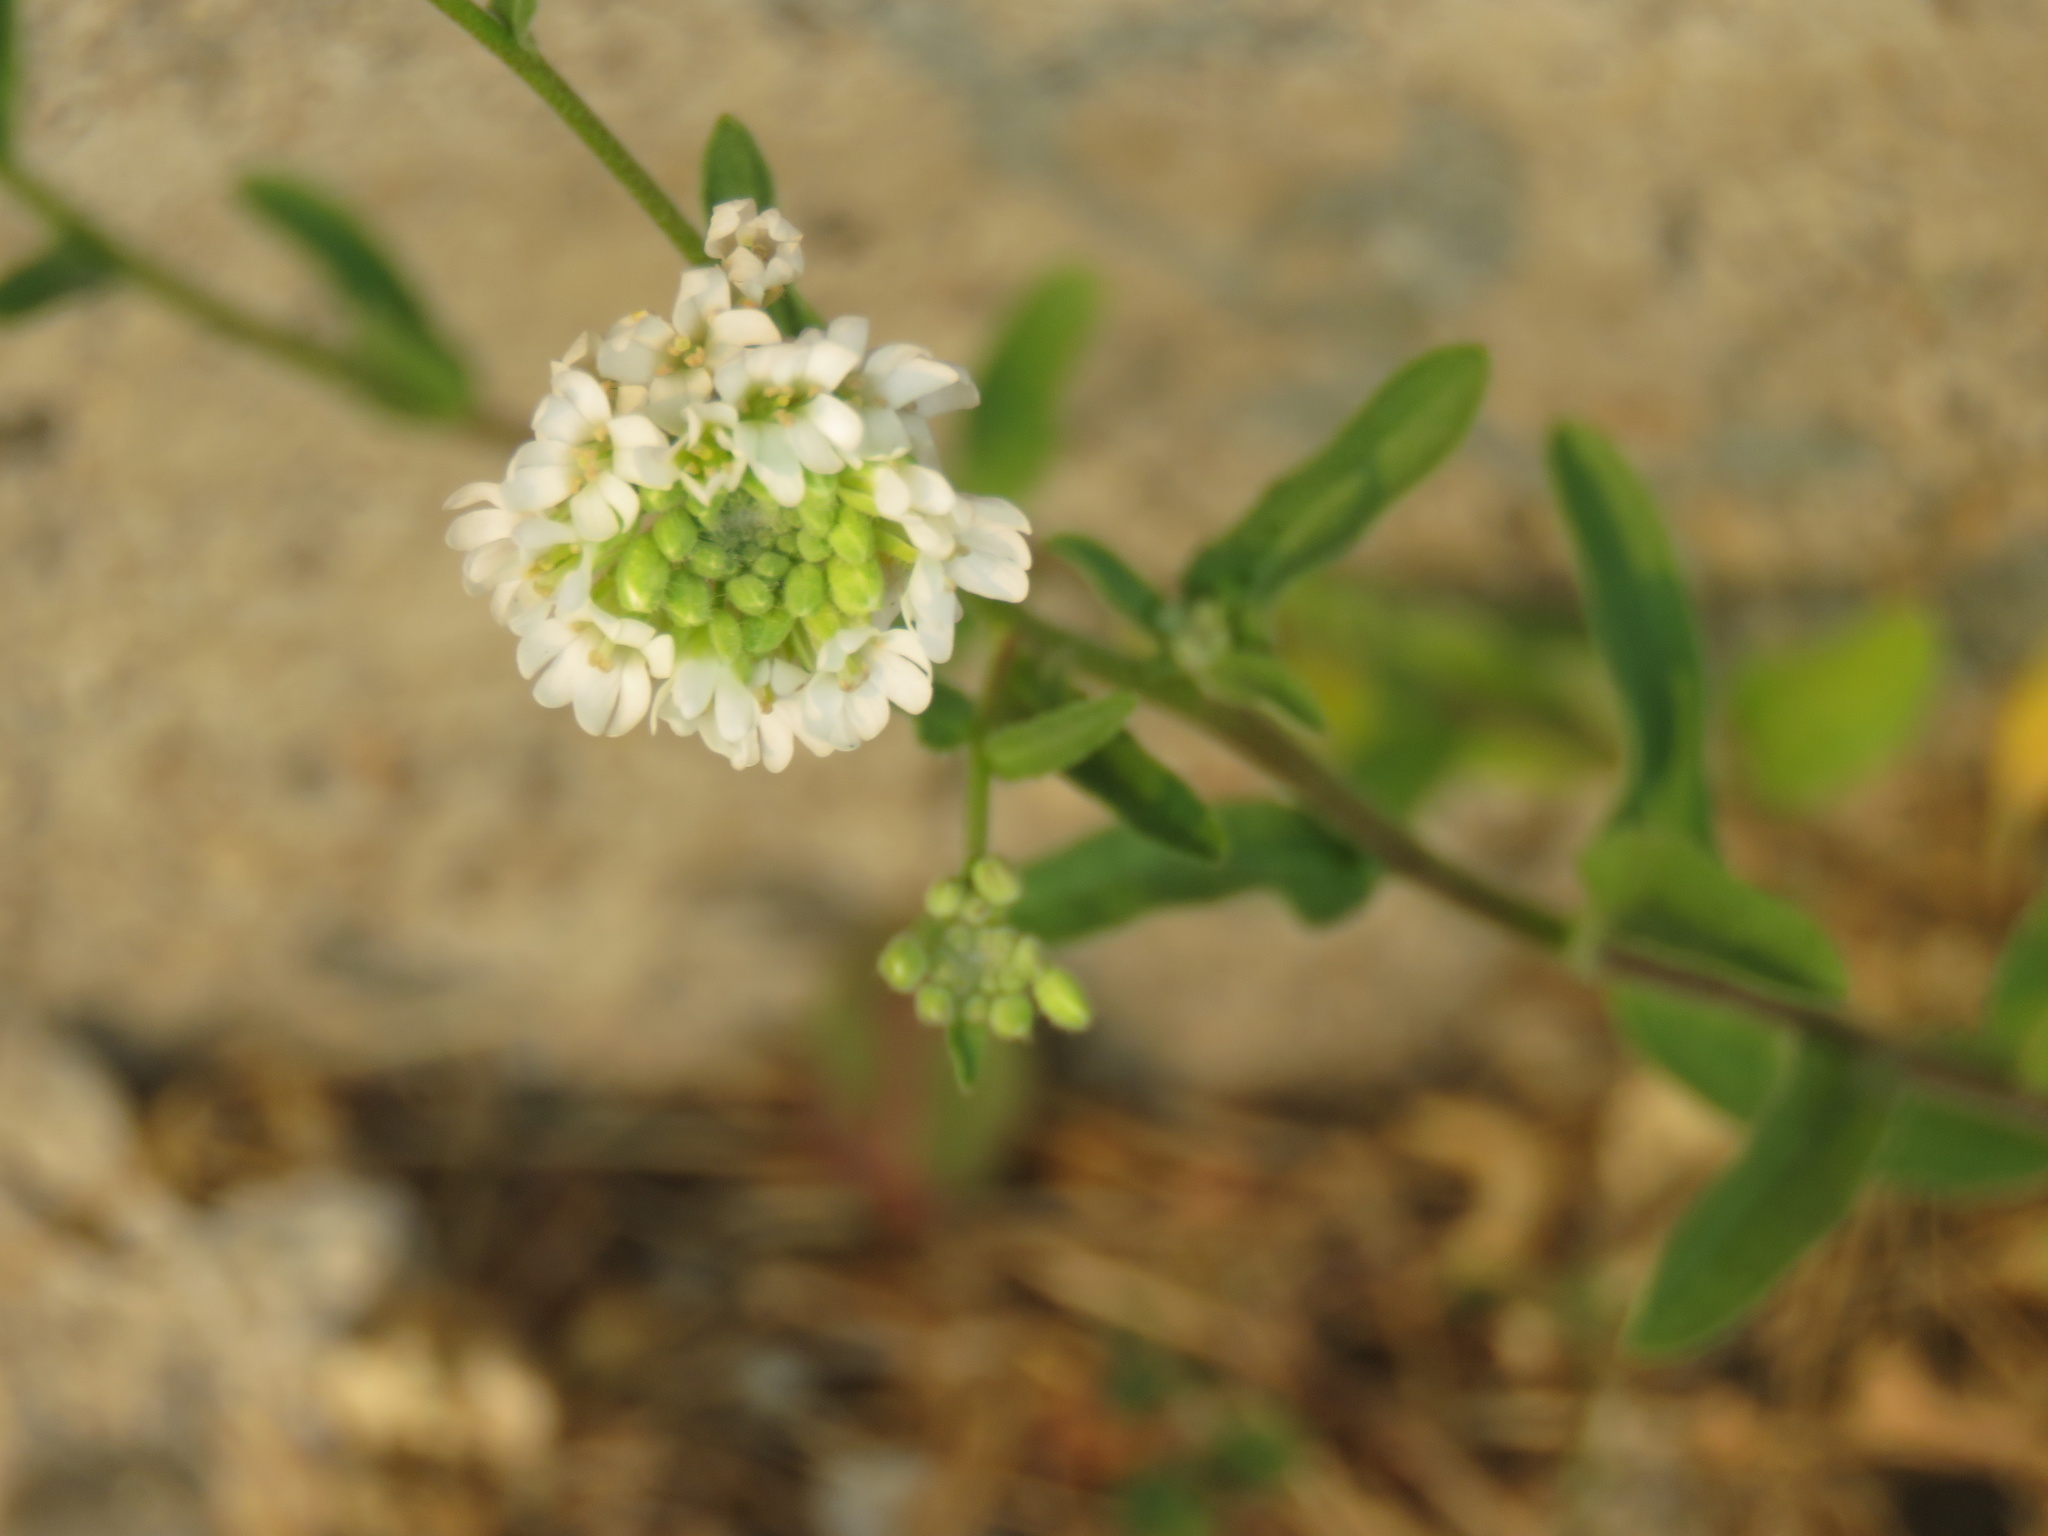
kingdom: Plantae
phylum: Tracheophyta
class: Magnoliopsida
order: Brassicales
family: Brassicaceae
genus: Berteroa
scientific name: Berteroa incana
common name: Hoary alison
